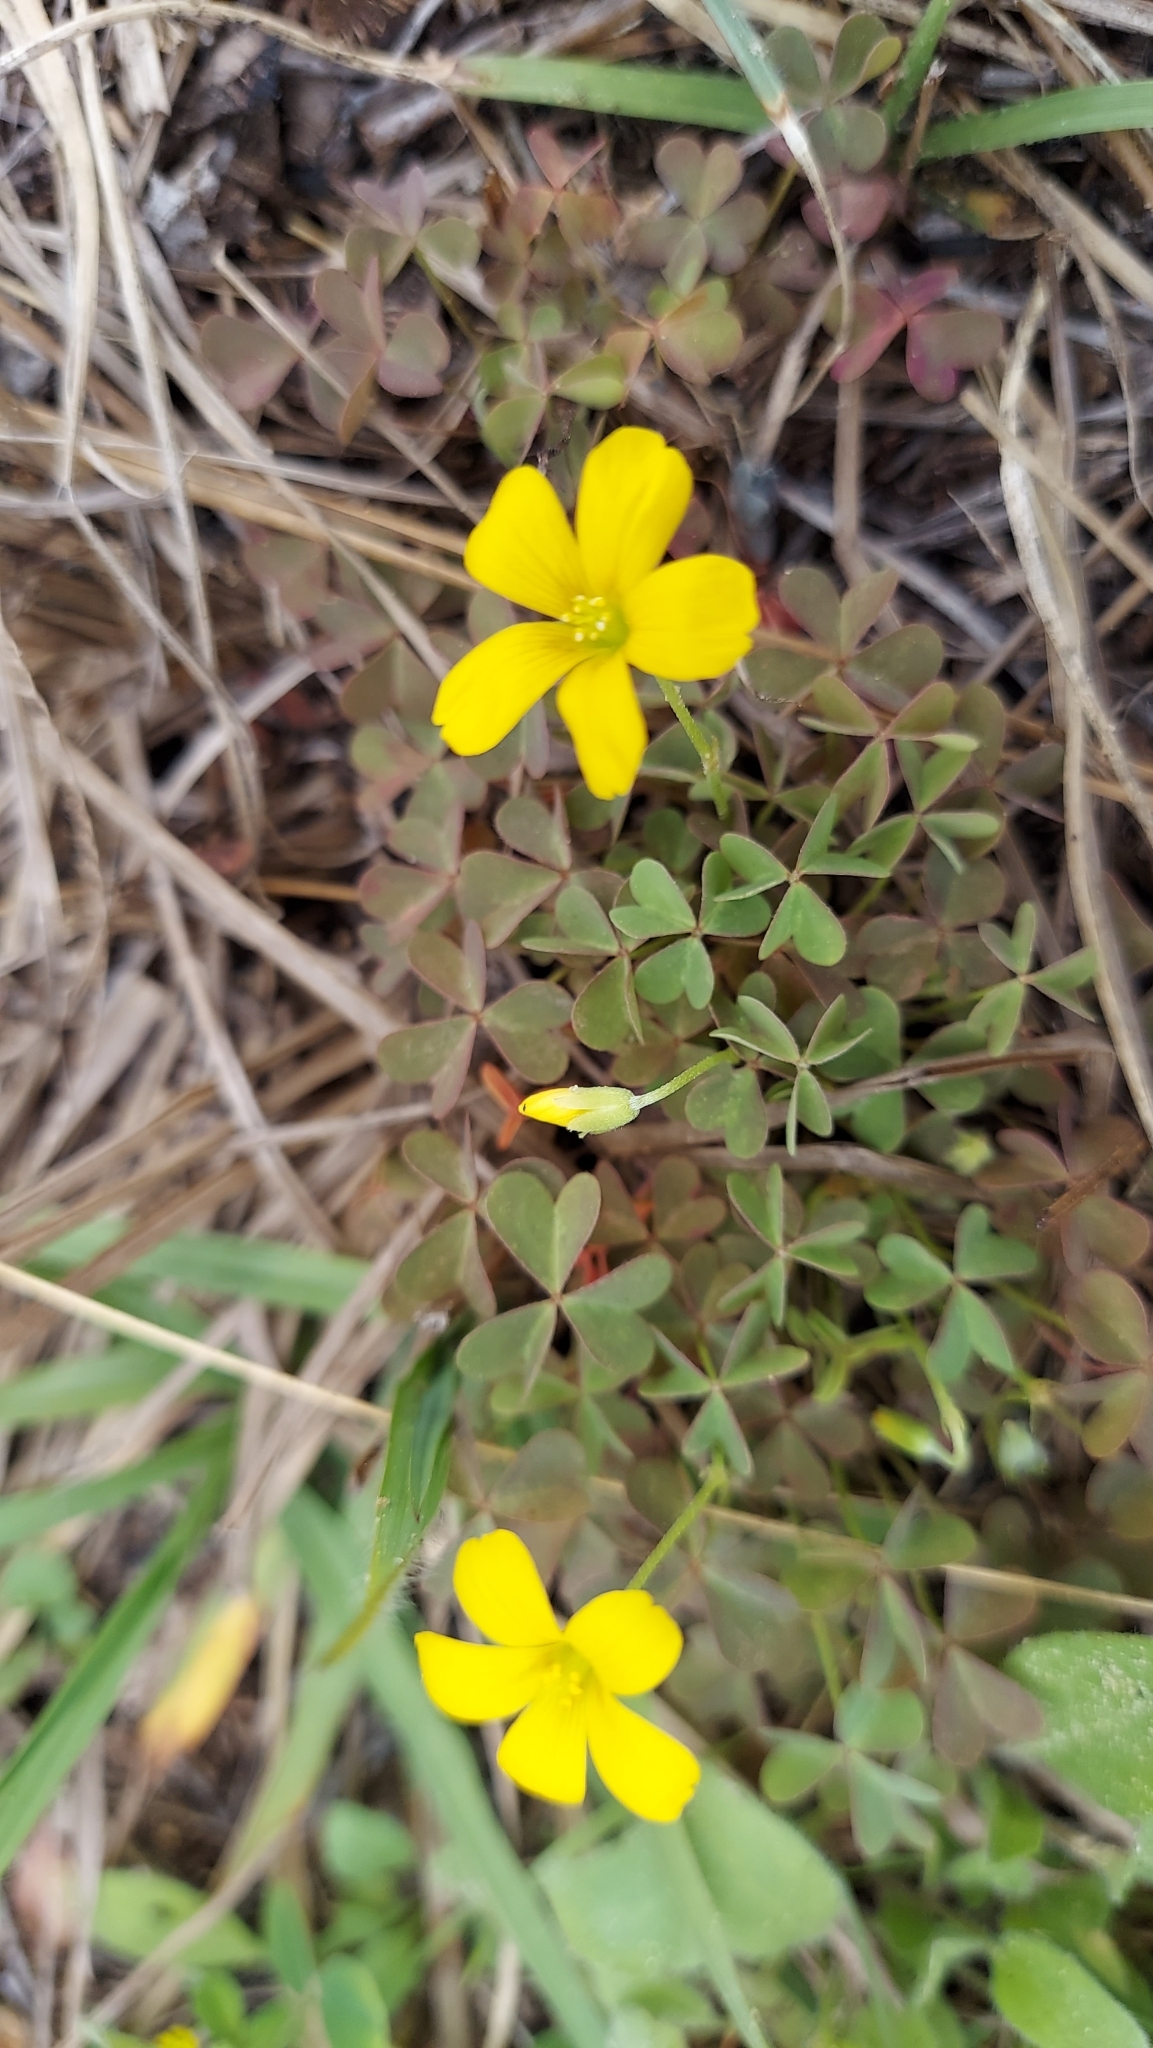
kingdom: Plantae
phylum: Tracheophyta
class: Magnoliopsida
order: Oxalidales
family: Oxalidaceae
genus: Oxalis
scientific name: Oxalis corniculata
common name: Procumbent yellow-sorrel
